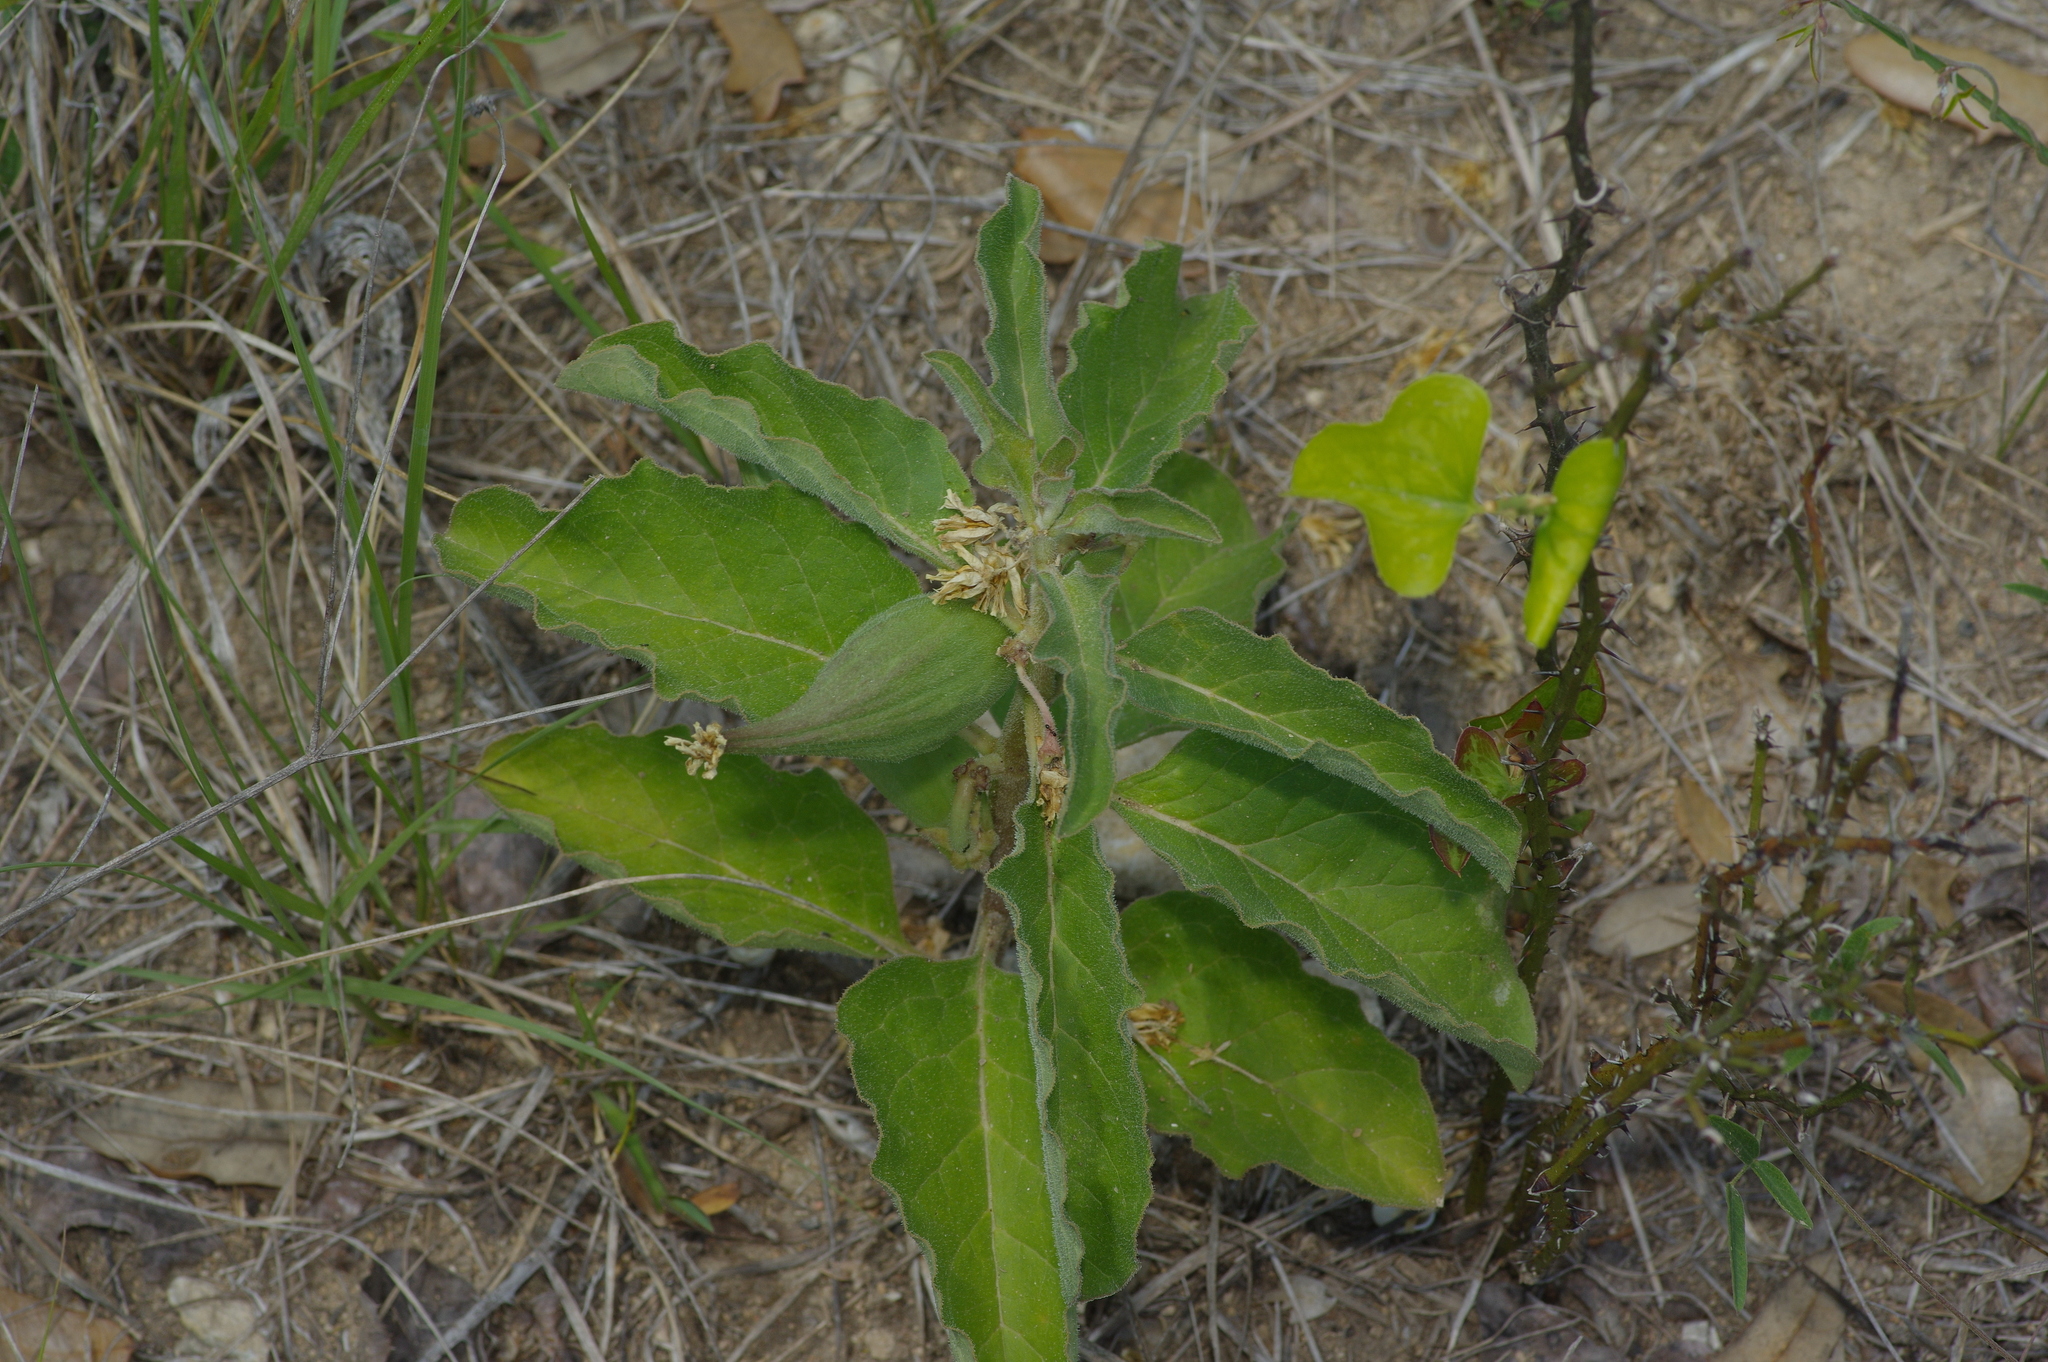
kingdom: Plantae
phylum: Tracheophyta
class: Magnoliopsida
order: Gentianales
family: Apocynaceae
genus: Asclepias
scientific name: Asclepias oenotheroides
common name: Zizotes milkweed
